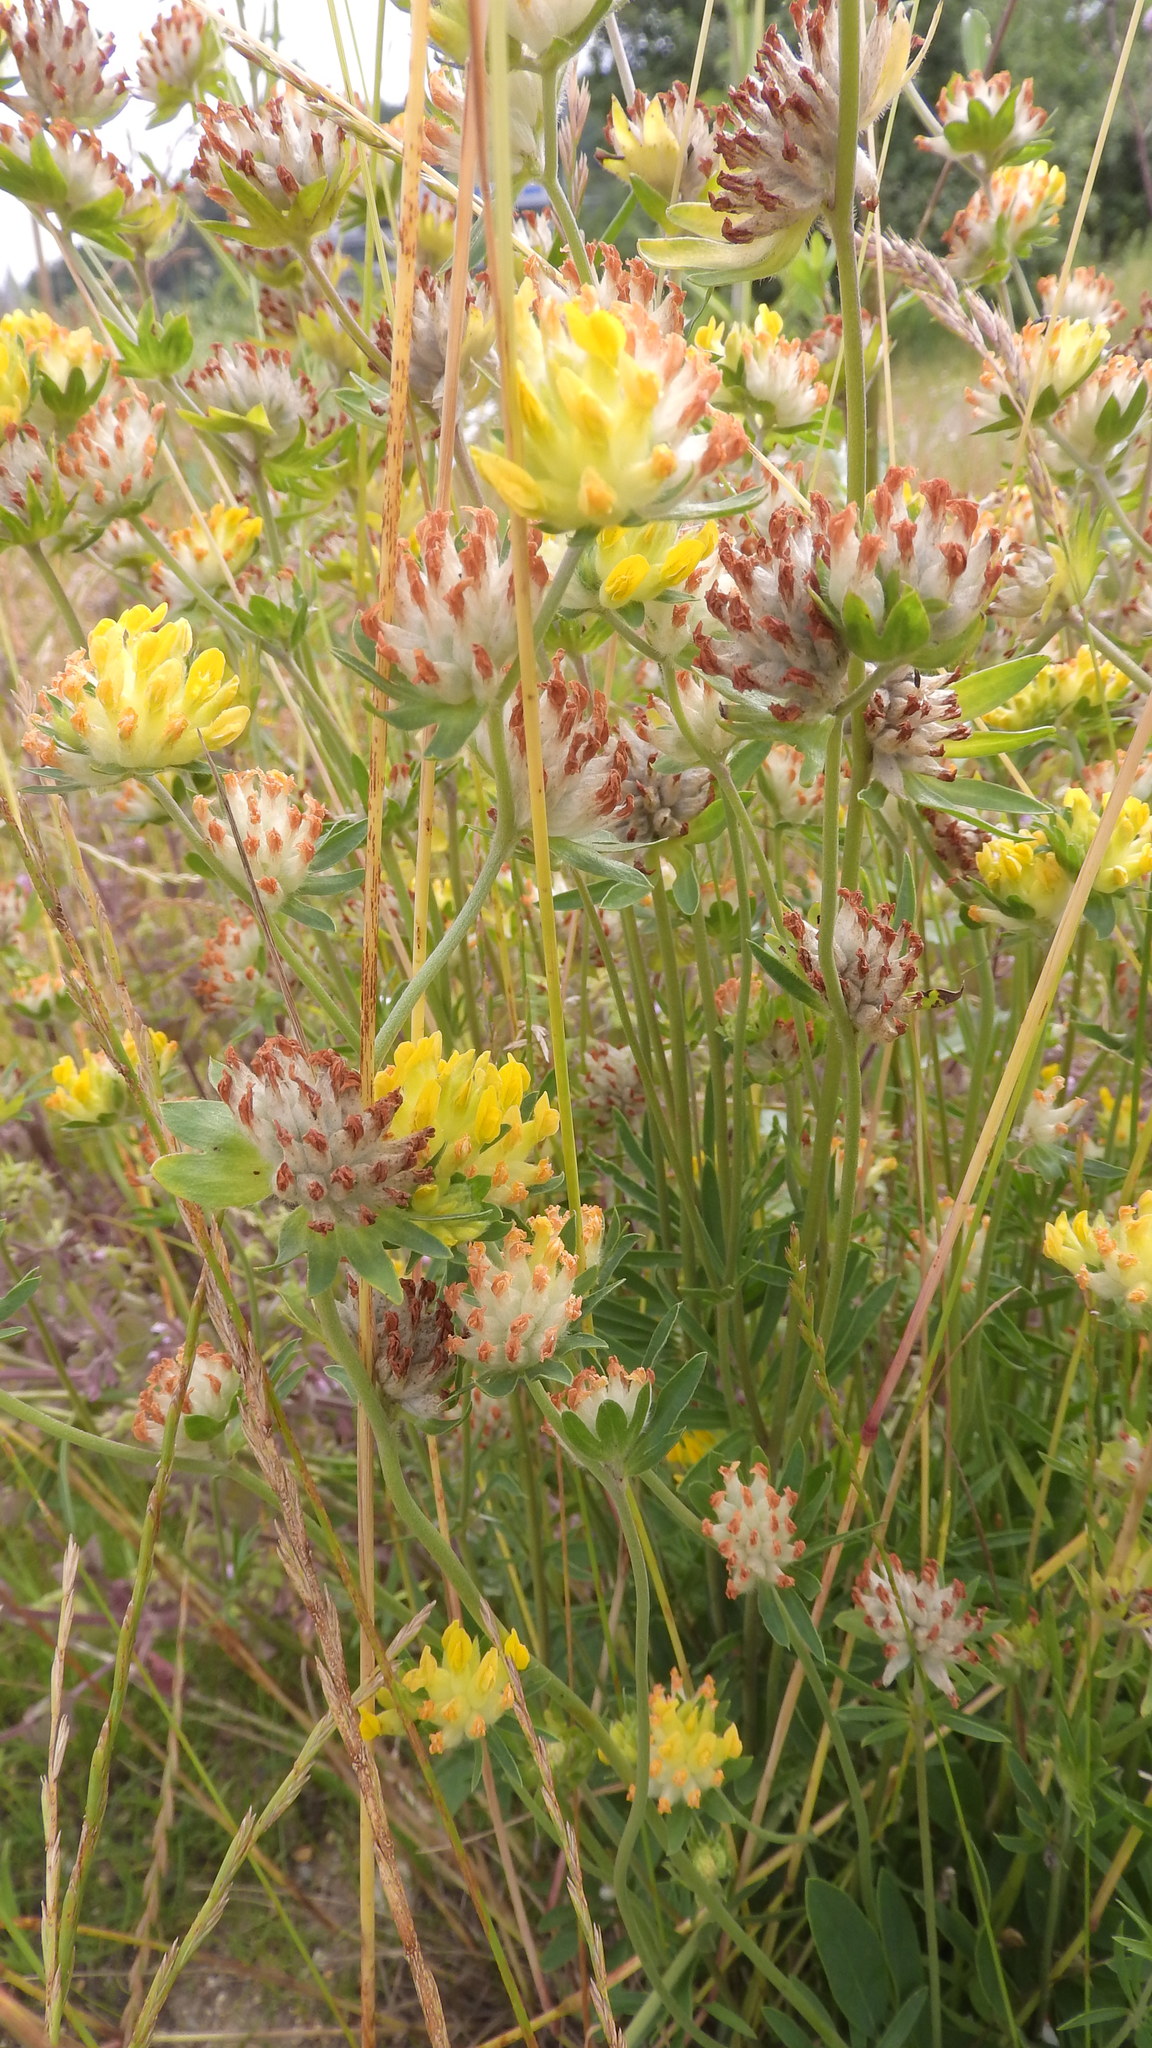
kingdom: Plantae
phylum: Tracheophyta
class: Magnoliopsida
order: Fabales
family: Fabaceae
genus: Anthyllis
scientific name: Anthyllis vulneraria
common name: Kidney vetch
